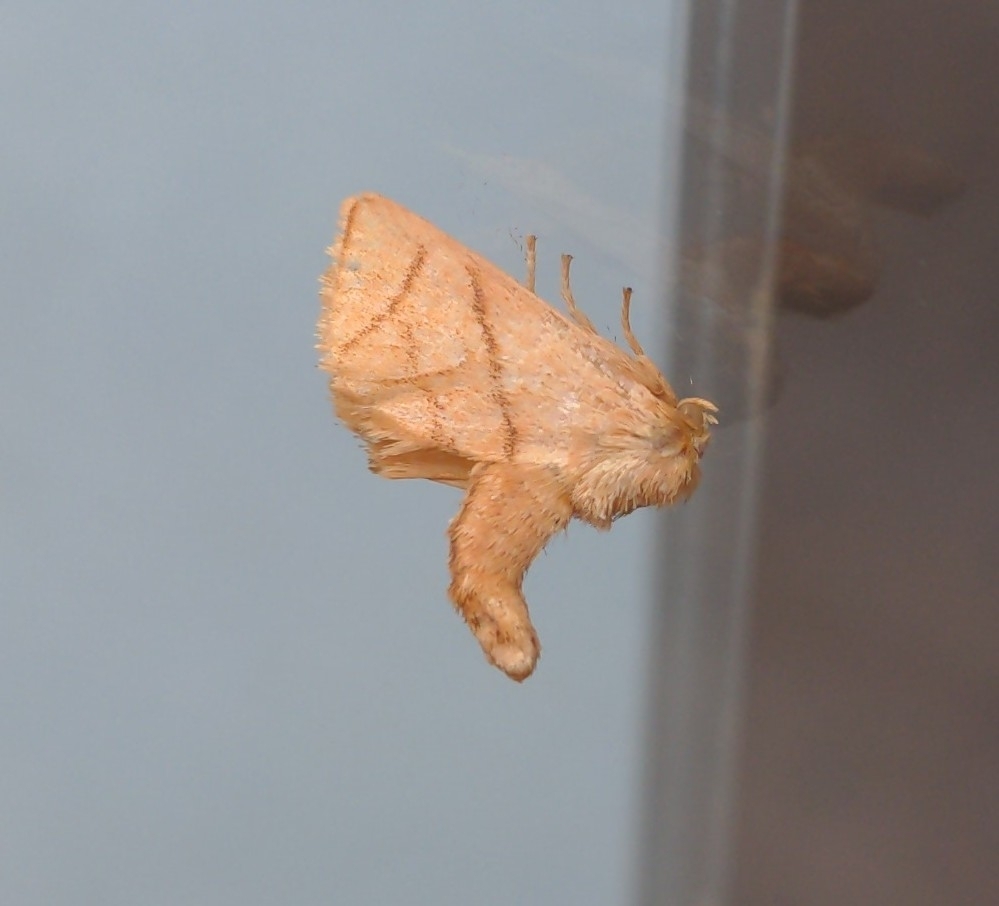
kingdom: Animalia
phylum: Arthropoda
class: Insecta
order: Lepidoptera
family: Limacodidae
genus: Apoda
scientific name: Apoda y-inversa
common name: Yellow-collared slug moth
